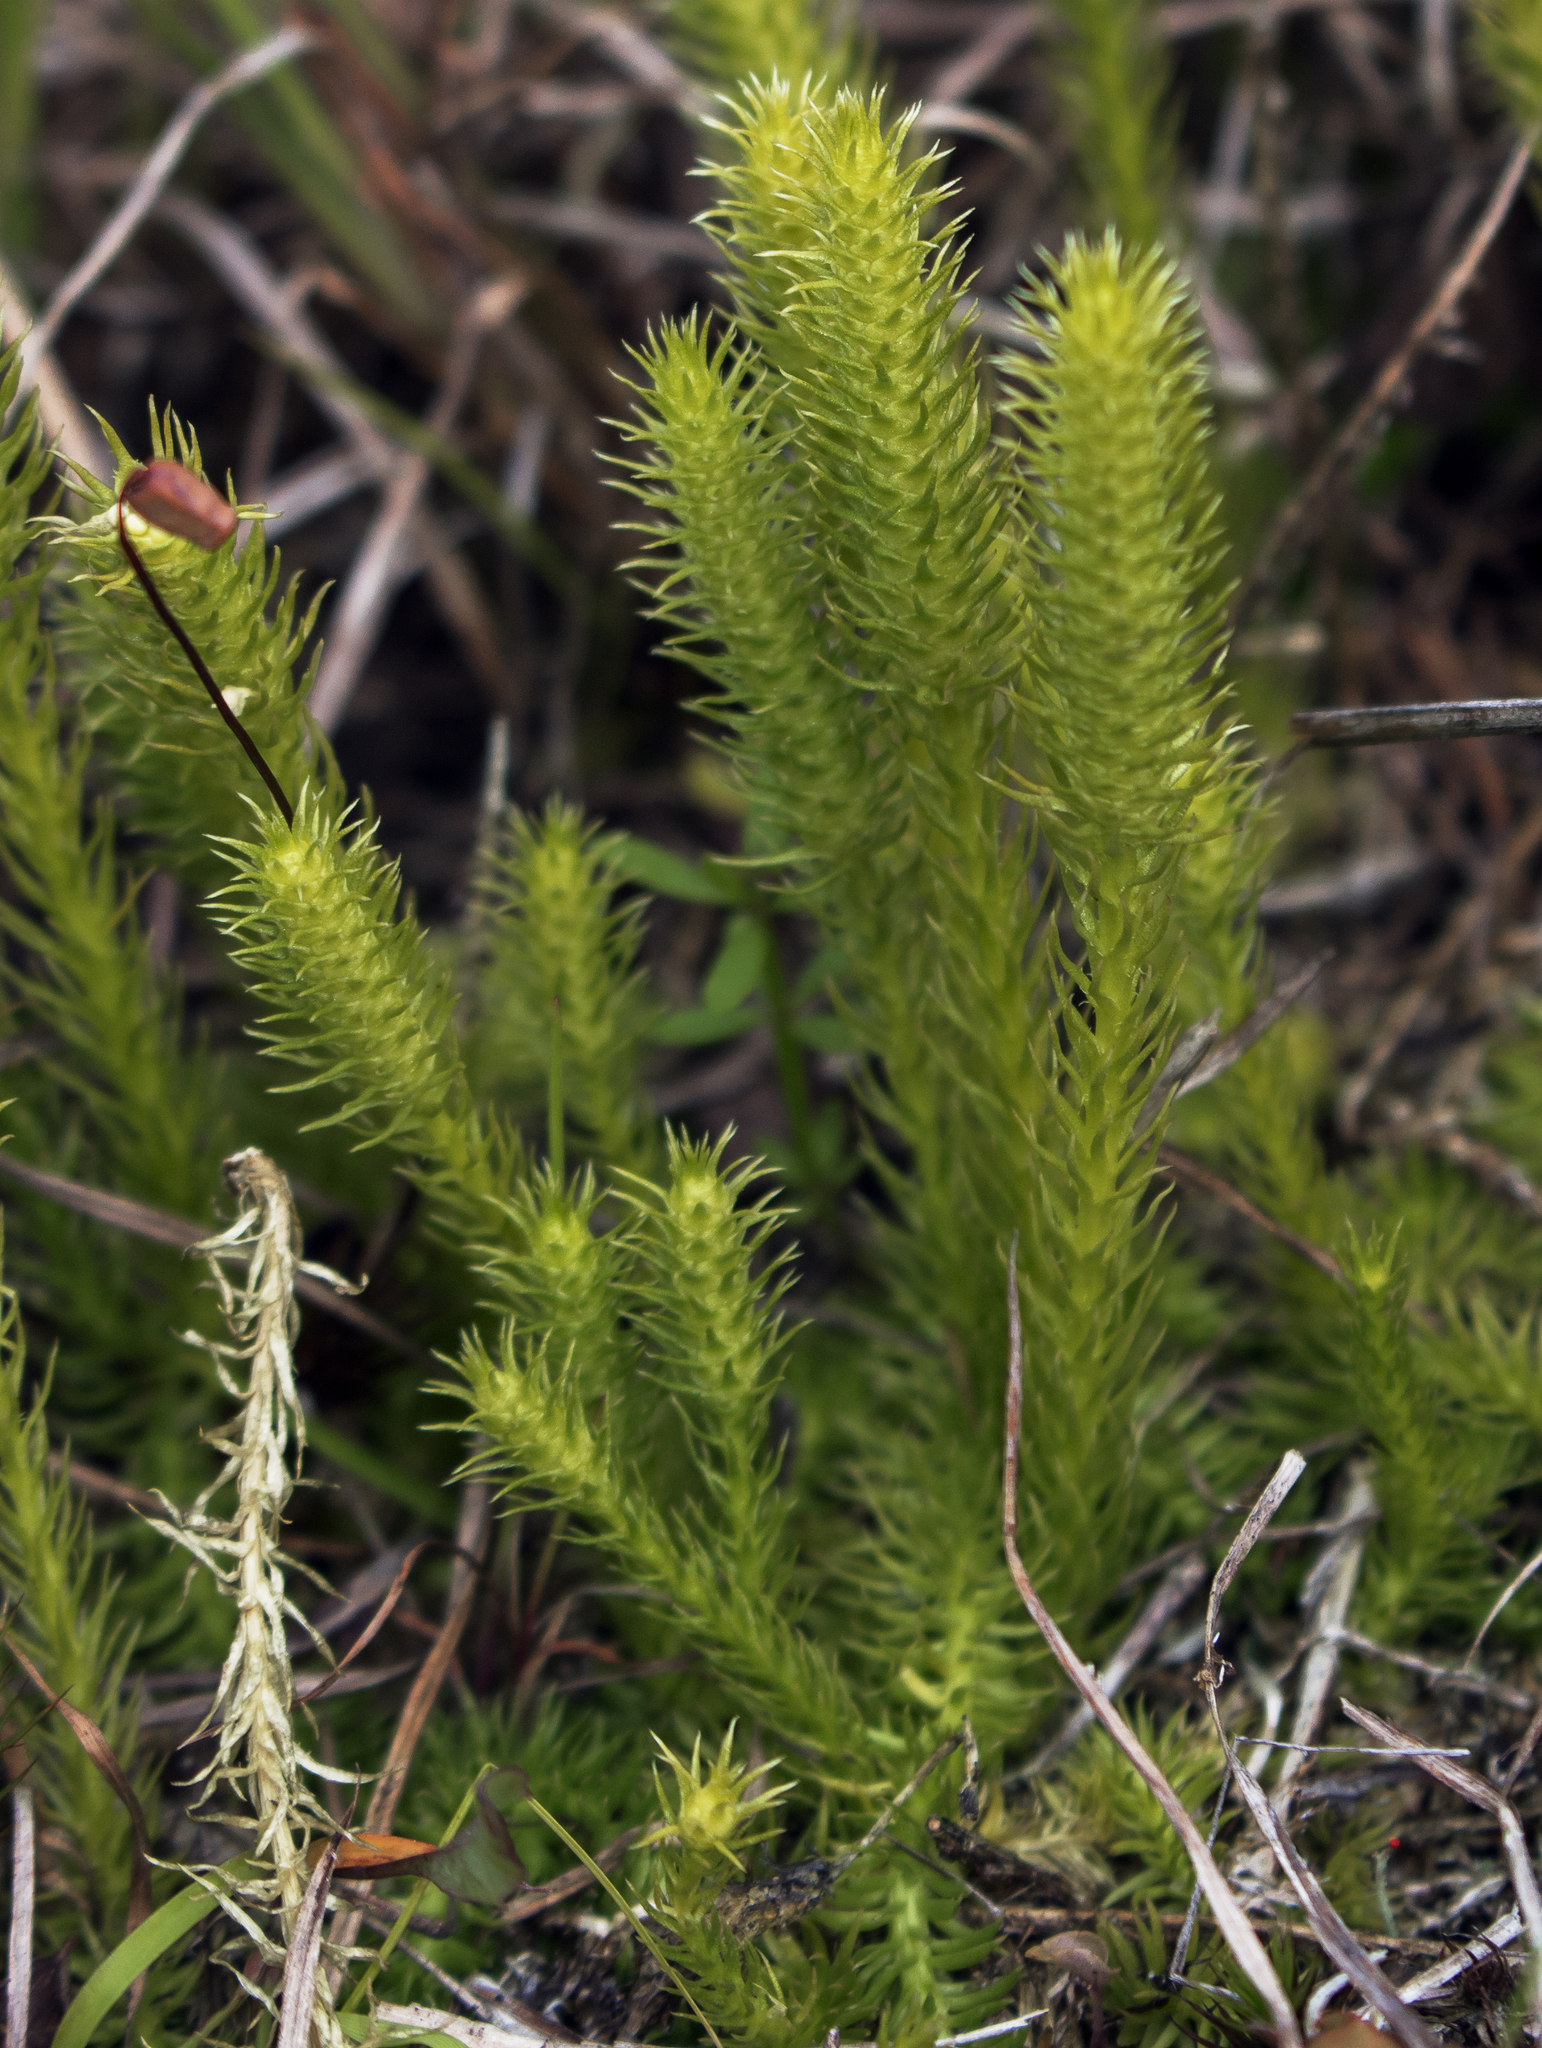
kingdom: Plantae
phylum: Tracheophyta
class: Lycopodiopsida
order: Lycopodiales
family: Lycopodiaceae
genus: Lycopodiella
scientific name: Lycopodiella inundata
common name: Marsh clubmoss
